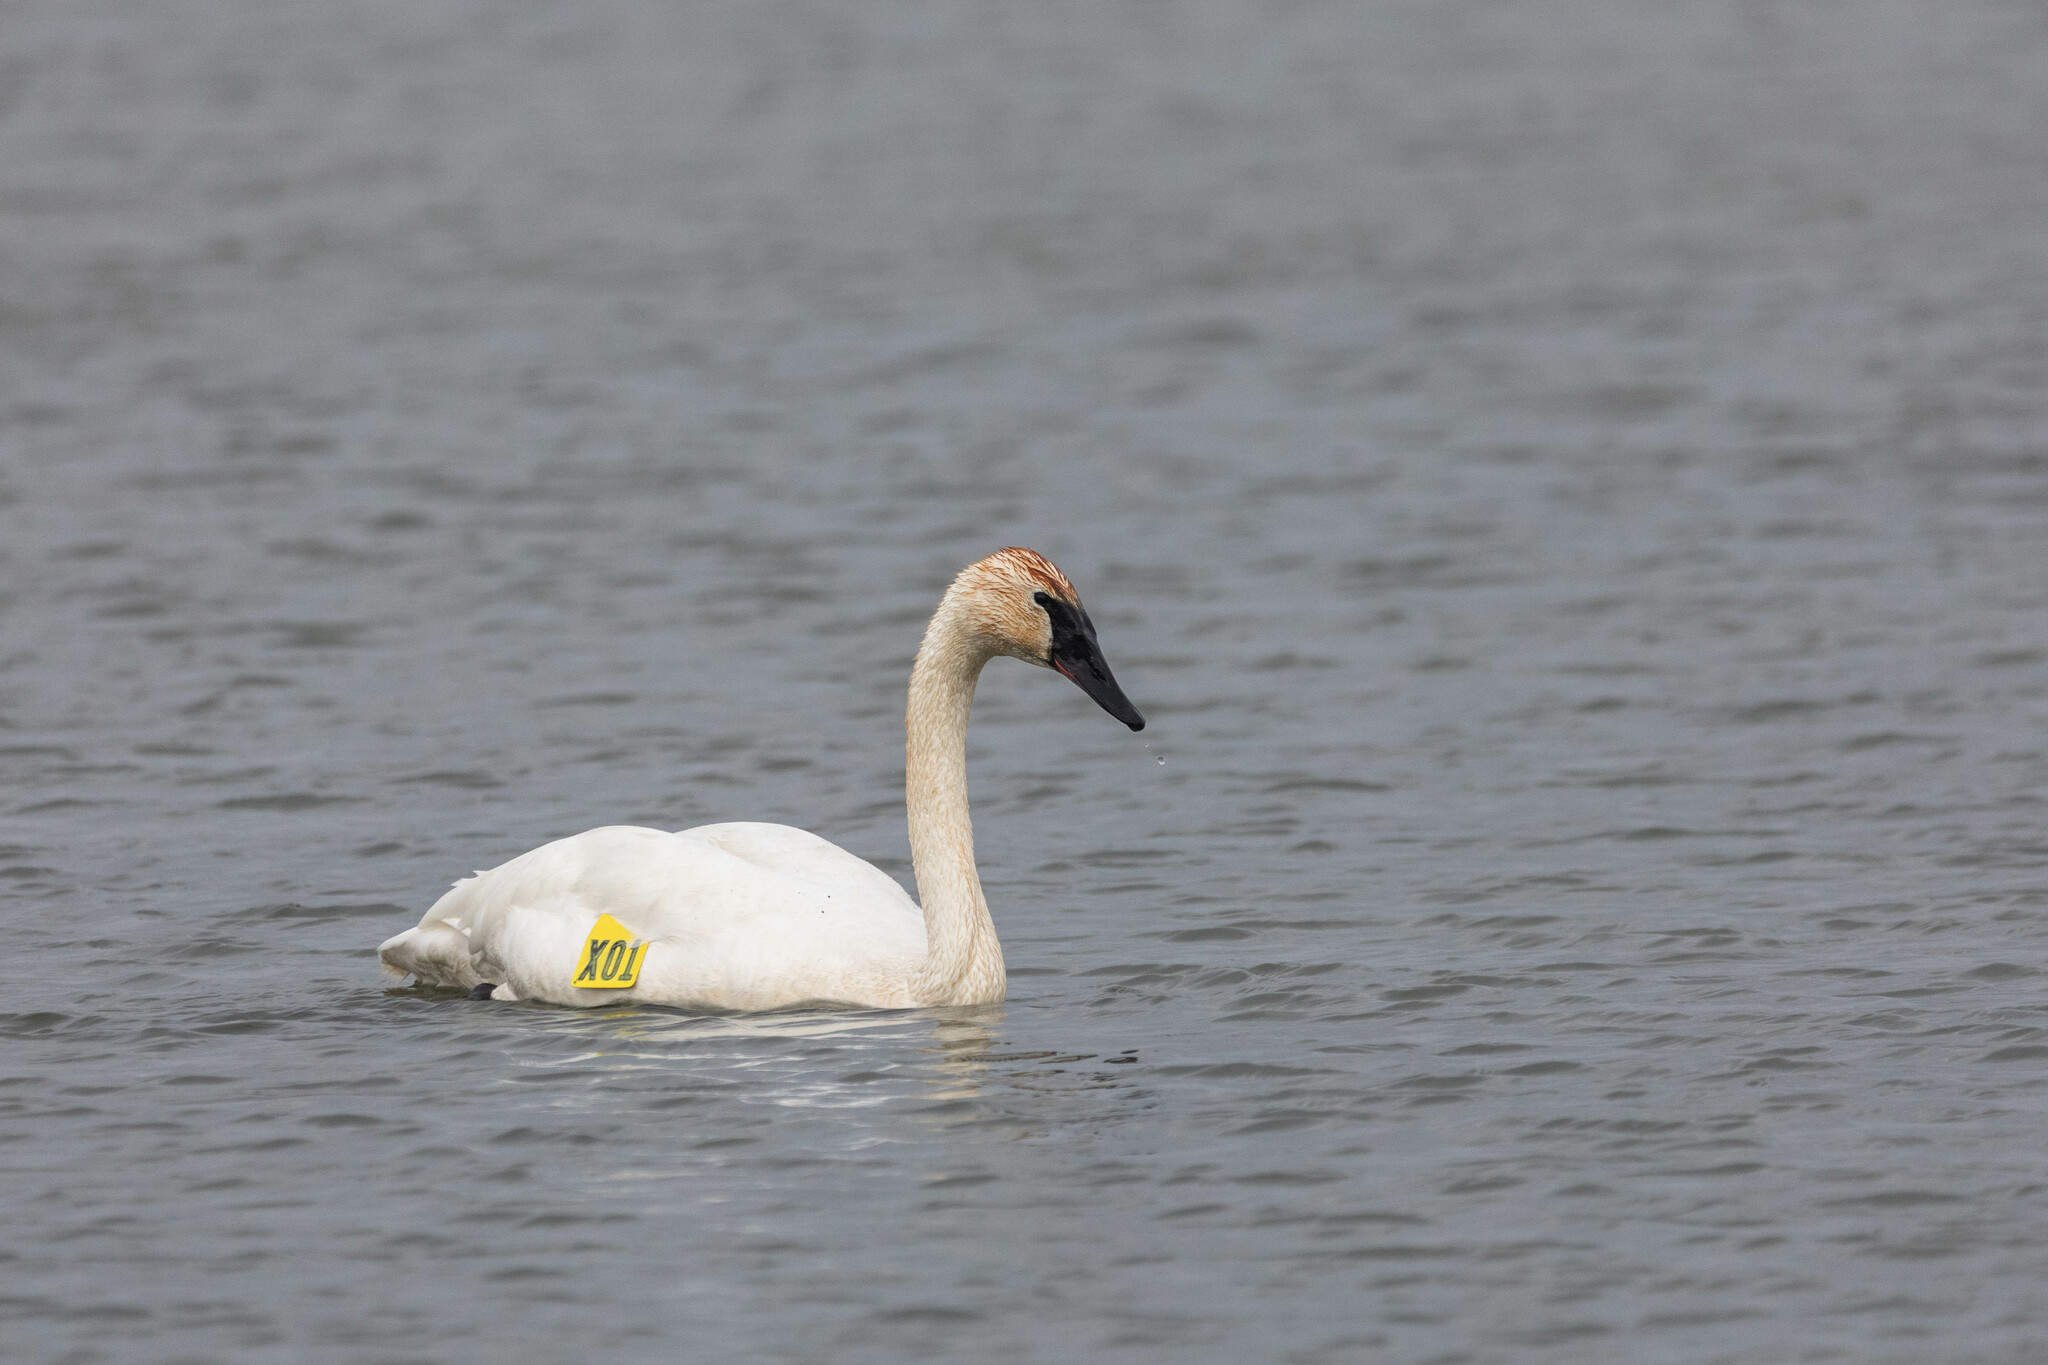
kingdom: Animalia
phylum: Chordata
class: Aves
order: Anseriformes
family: Anatidae
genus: Cygnus
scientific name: Cygnus buccinator
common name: Trumpeter swan
